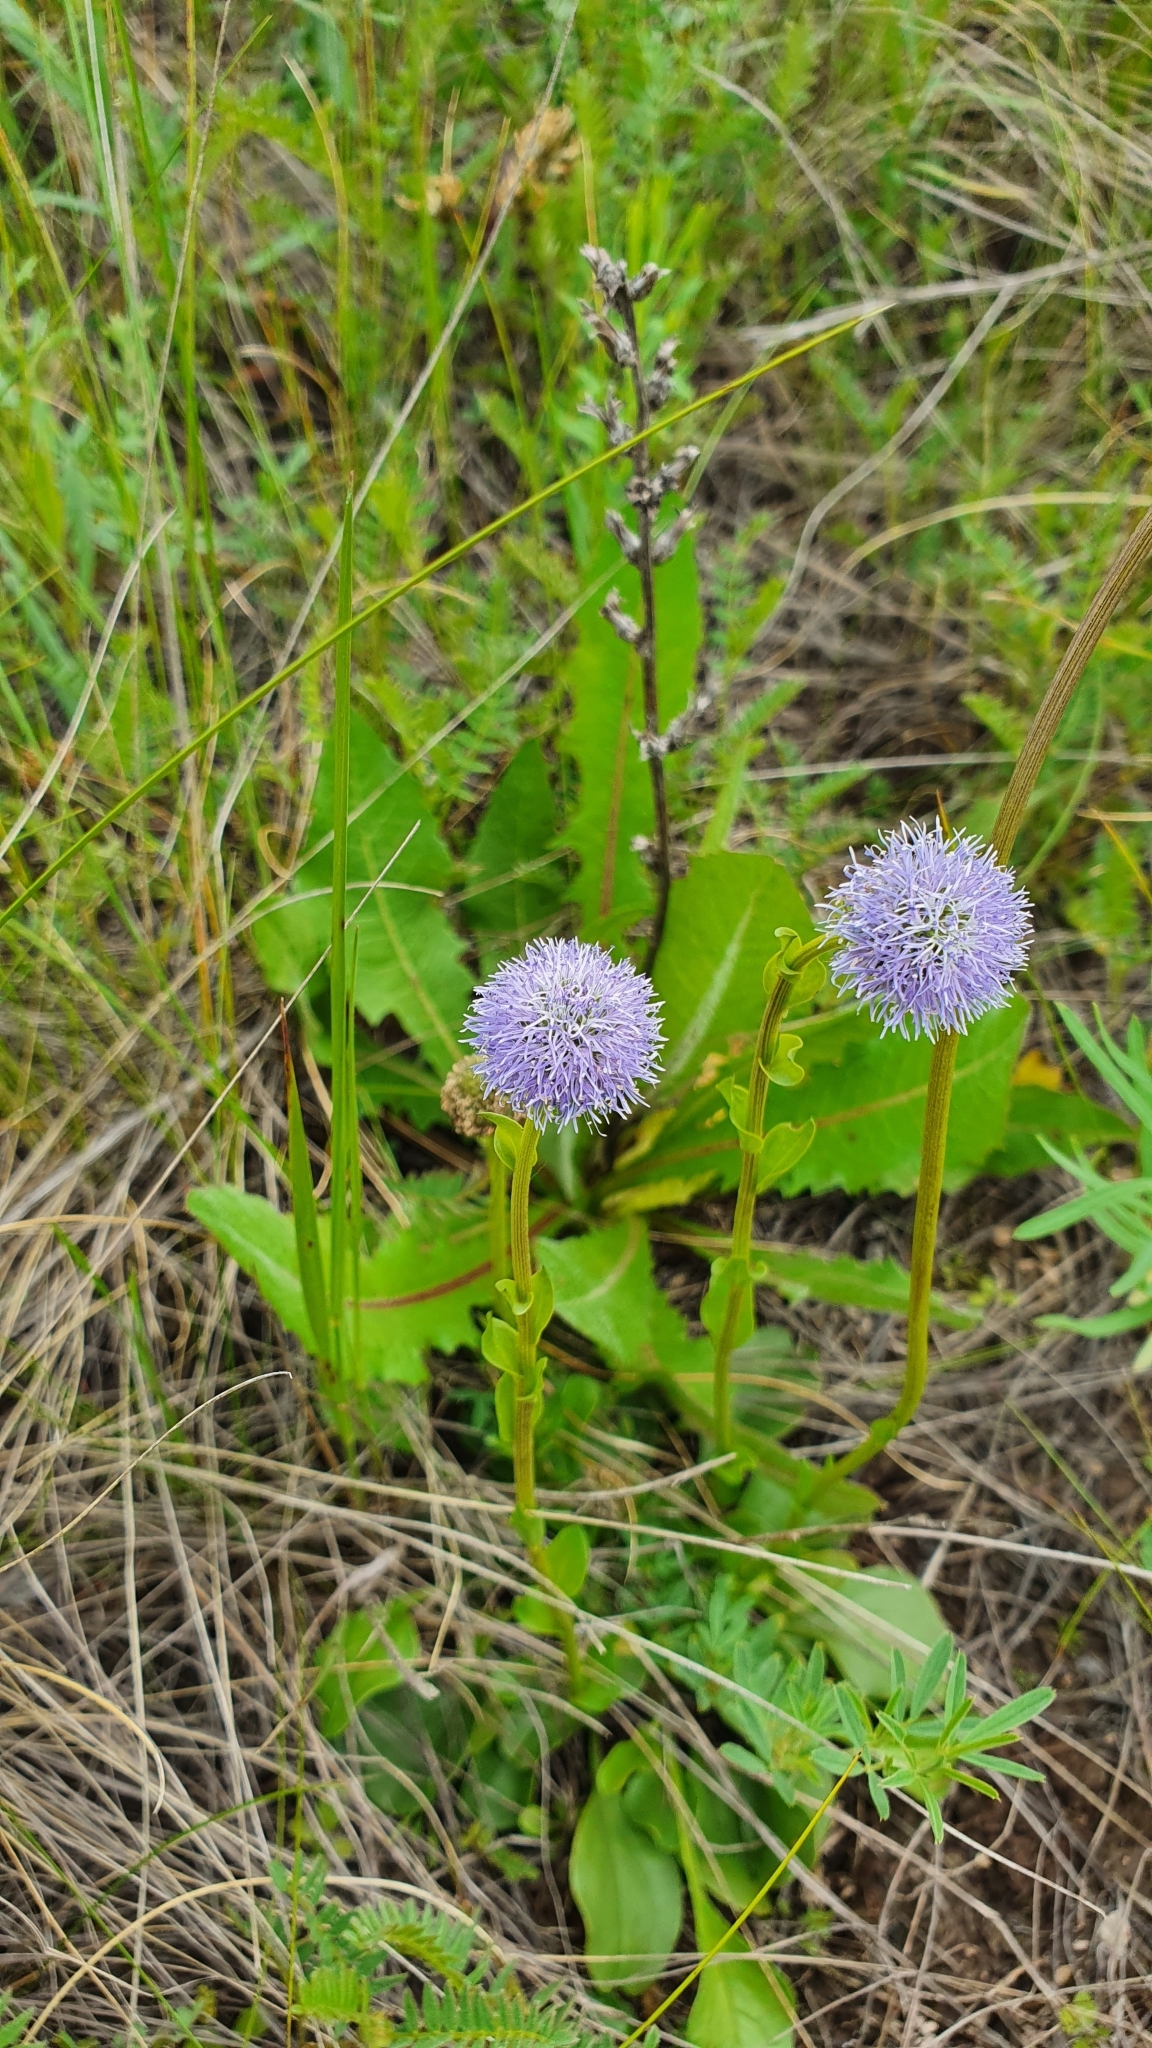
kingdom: Plantae
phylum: Tracheophyta
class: Magnoliopsida
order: Lamiales
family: Plantaginaceae
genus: Globularia
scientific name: Globularia bisnagarica
